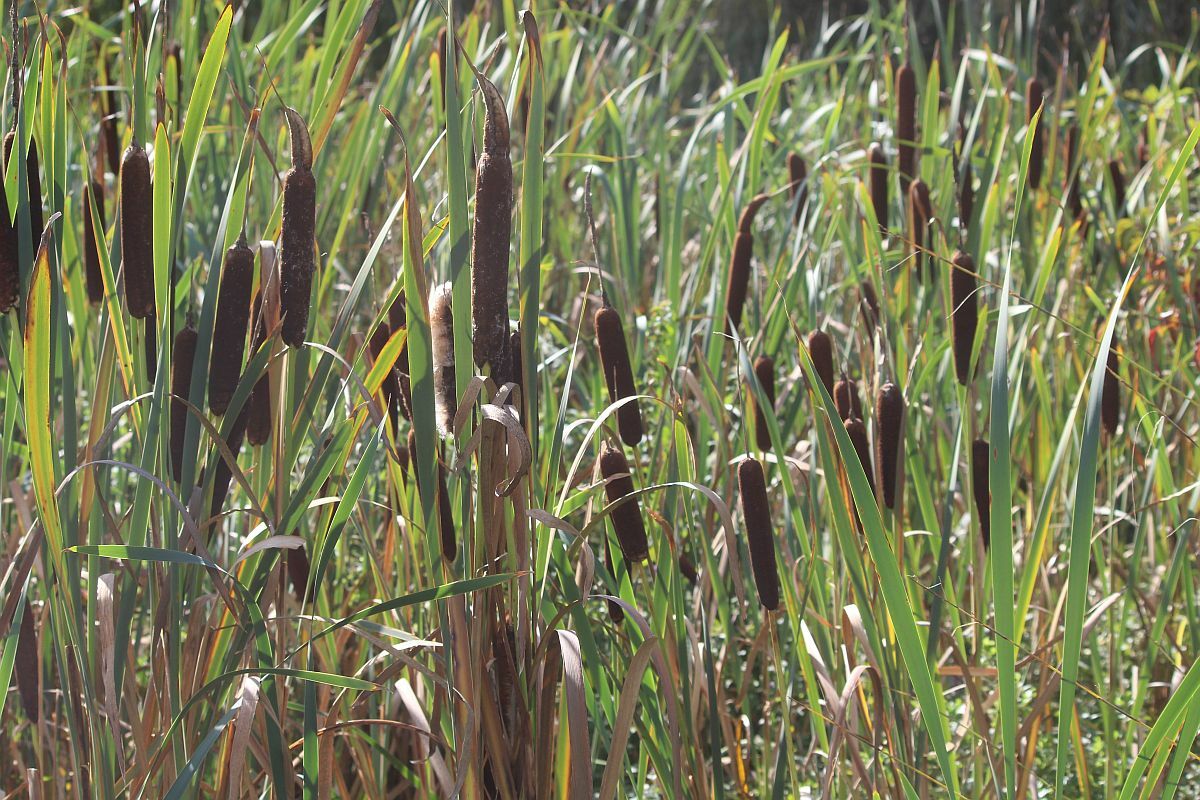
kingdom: Plantae
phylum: Tracheophyta
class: Liliopsida
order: Poales
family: Typhaceae
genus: Typha
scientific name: Typha latifolia
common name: Broadleaf cattail
